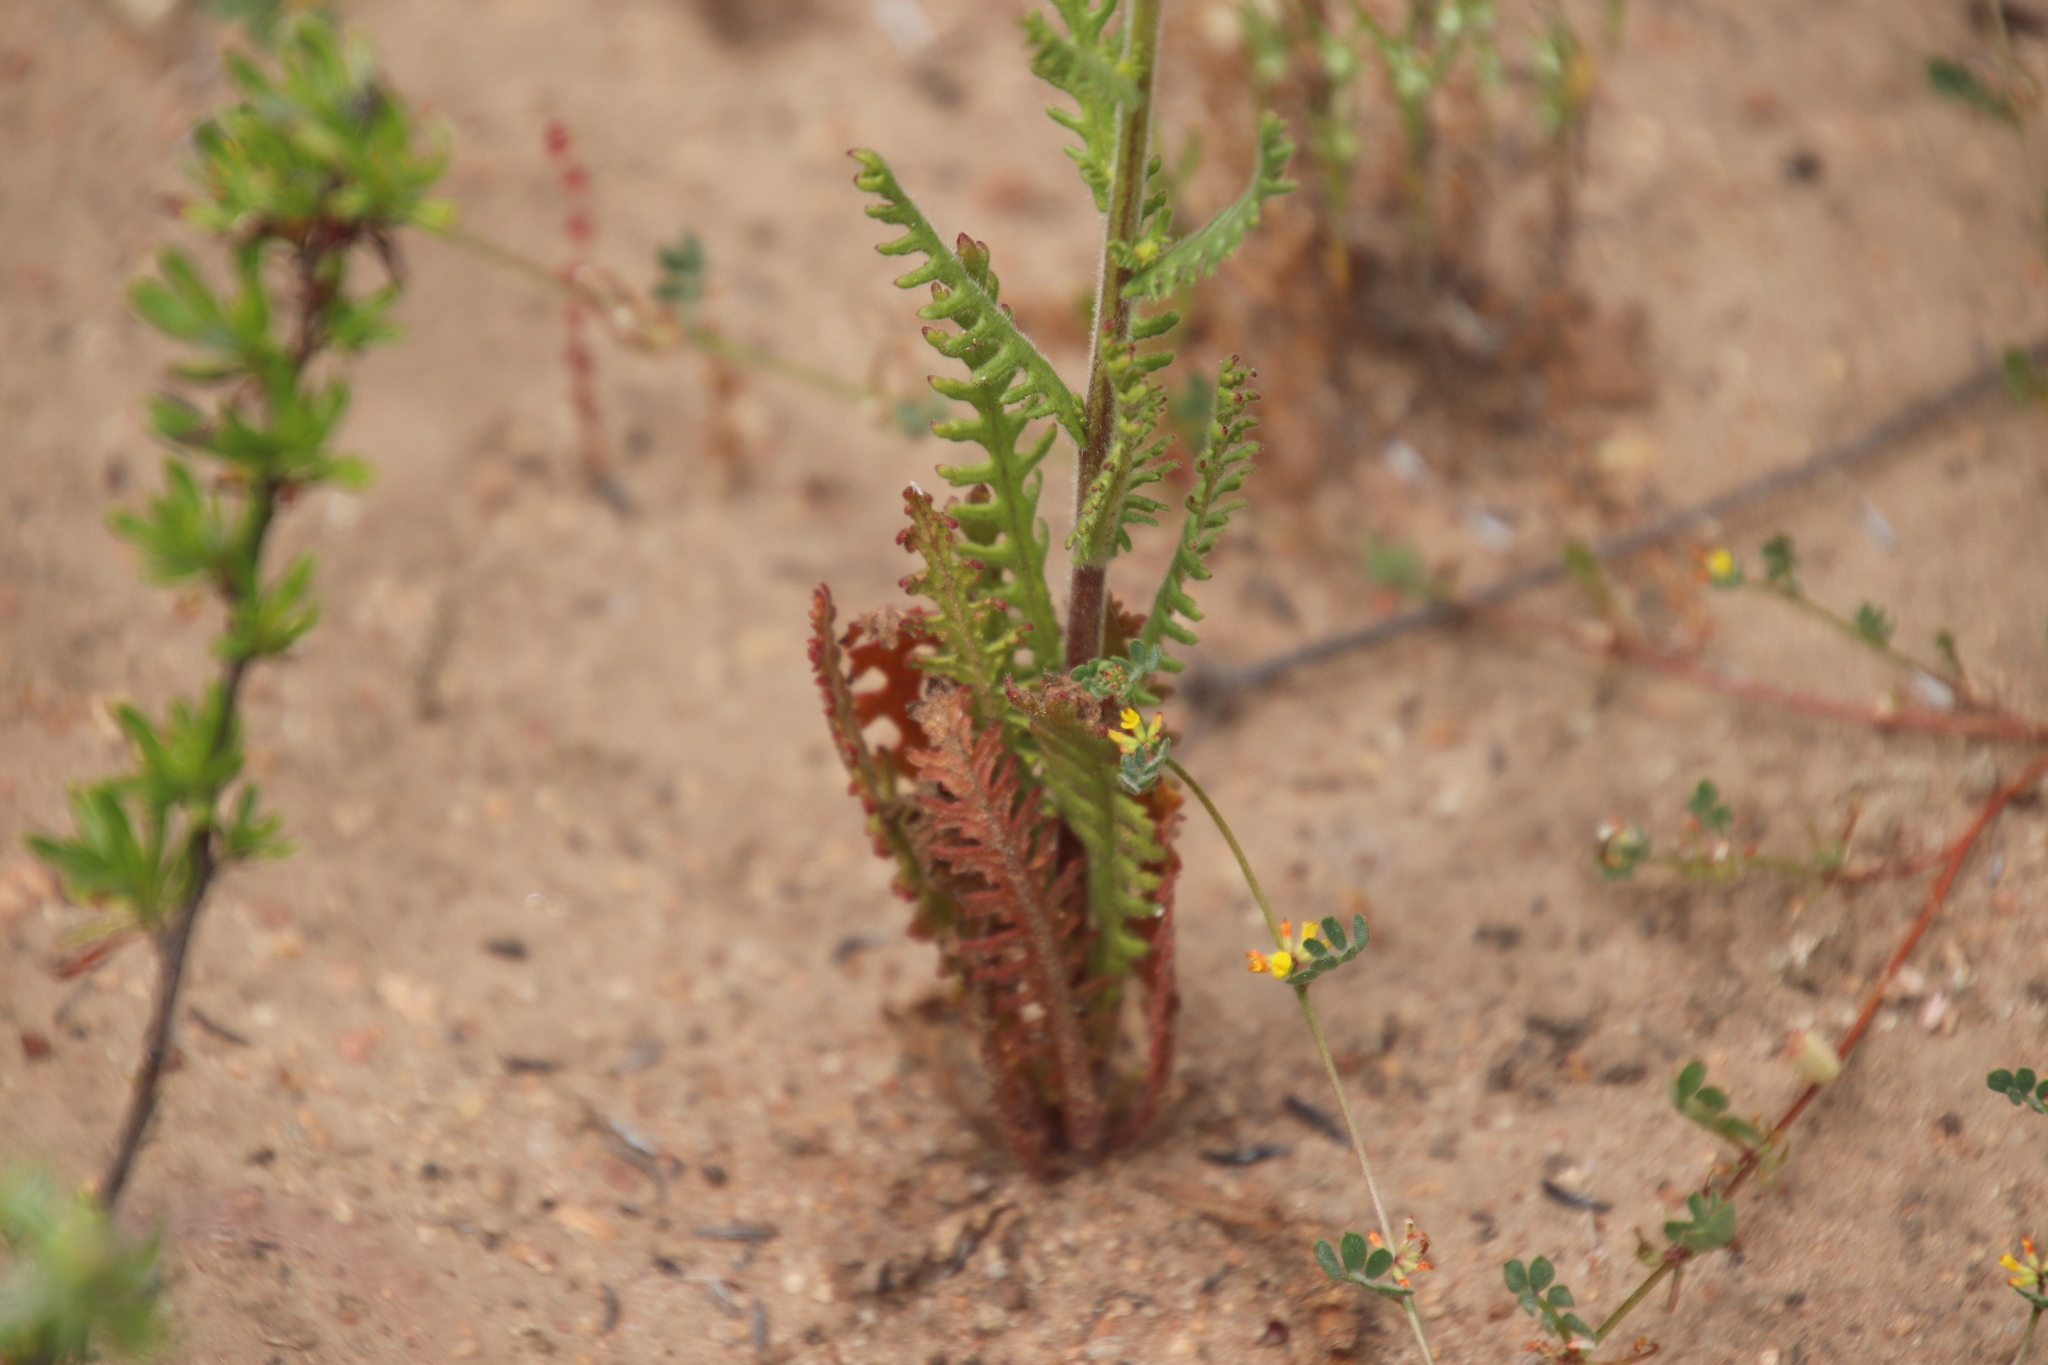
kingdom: Plantae
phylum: Tracheophyta
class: Magnoliopsida
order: Boraginales
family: Hydrophyllaceae
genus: Emmenanthe
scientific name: Emmenanthe penduliflora
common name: Whispering-bells
